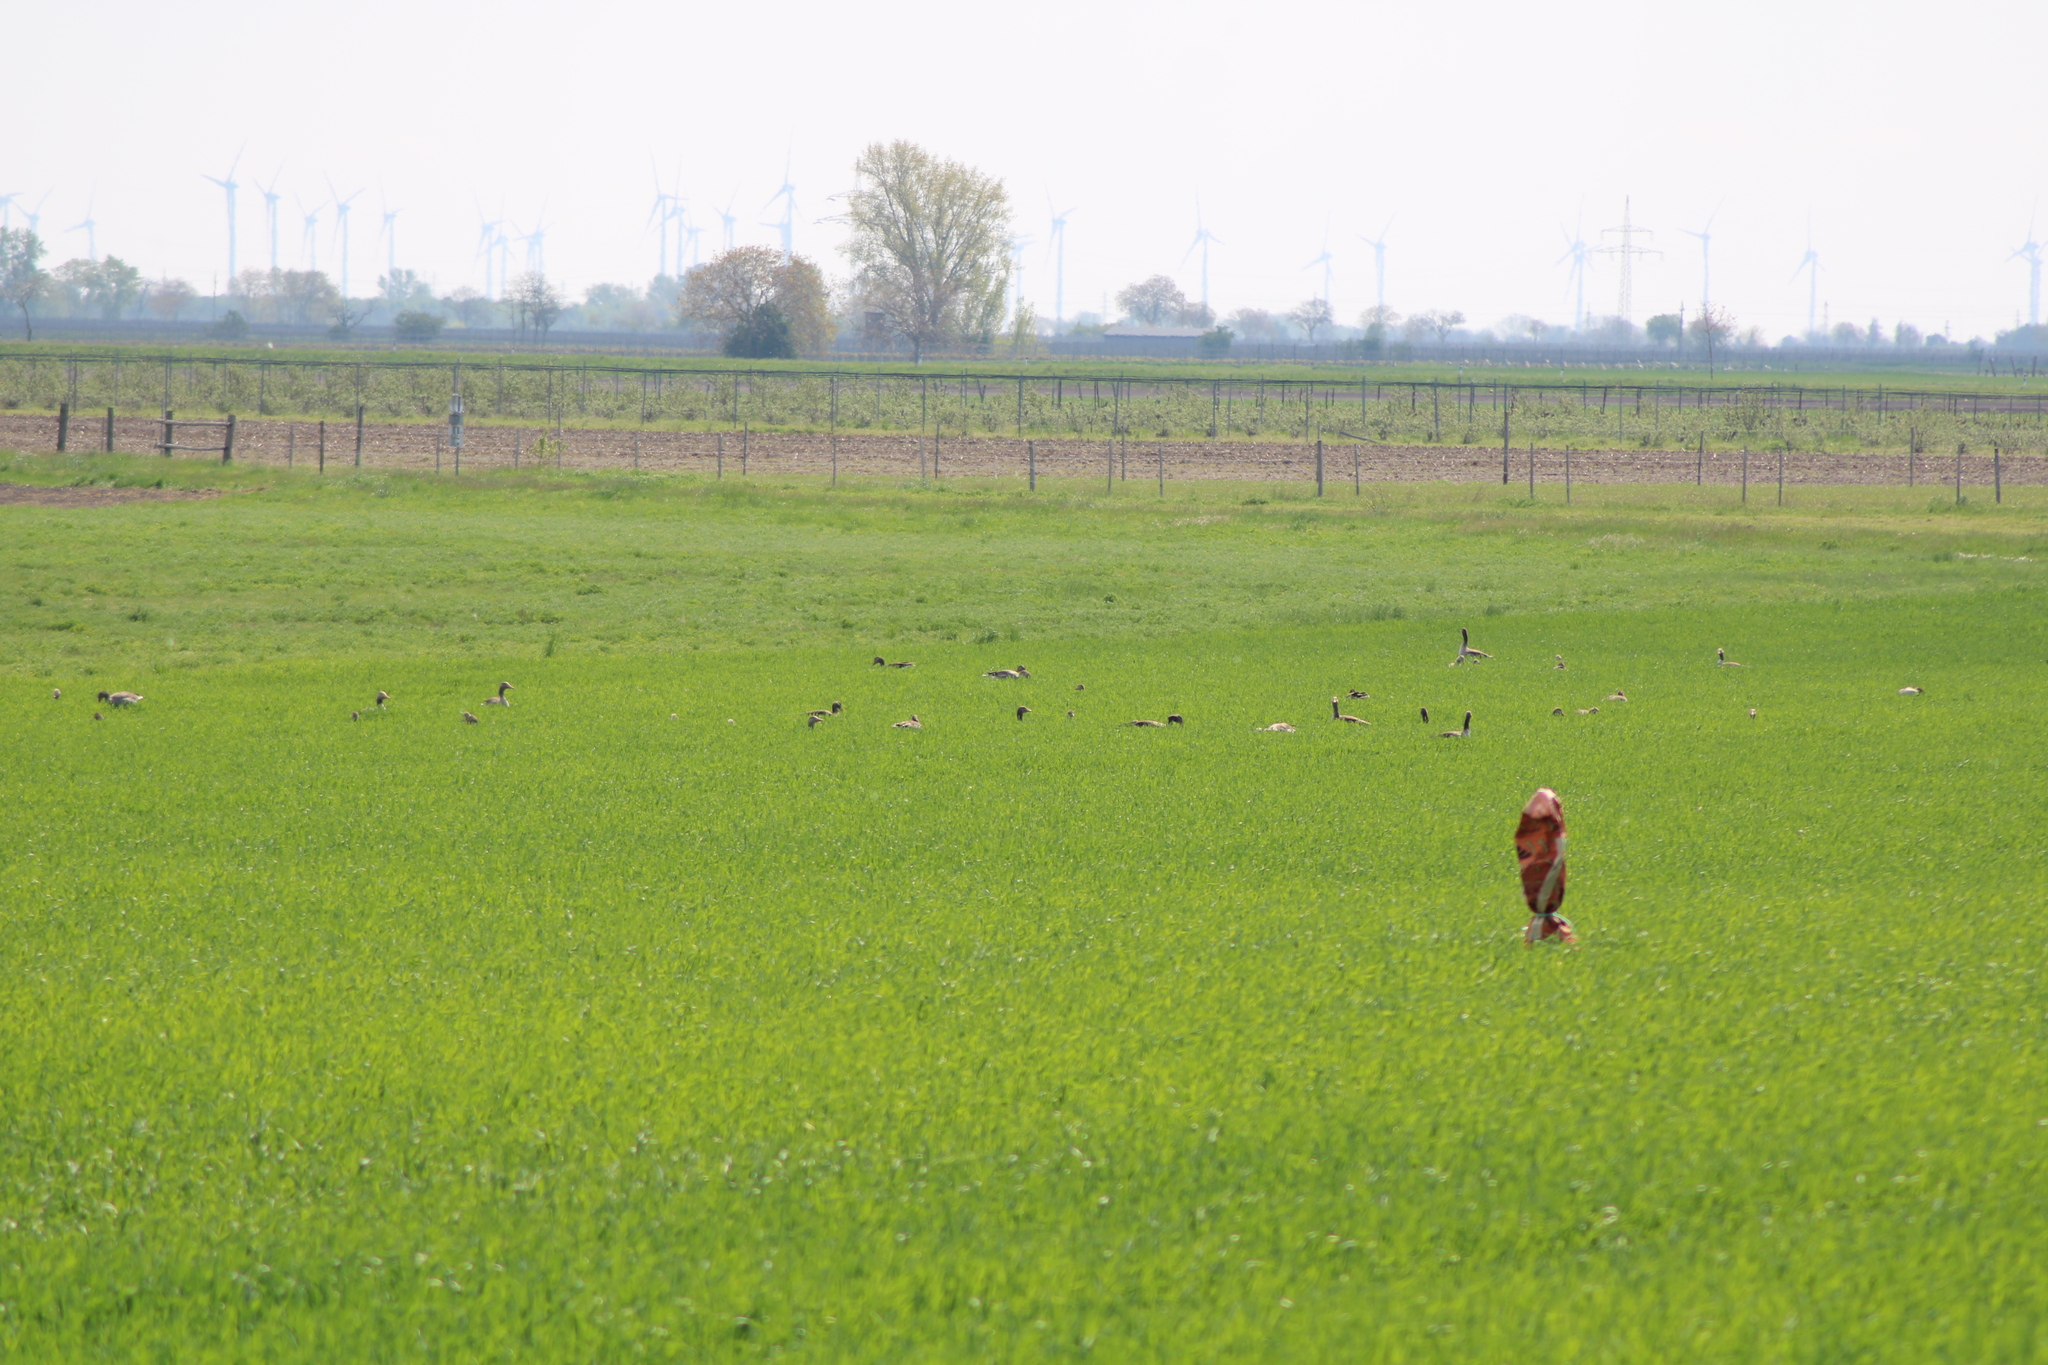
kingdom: Animalia
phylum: Chordata
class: Aves
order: Anseriformes
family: Anatidae
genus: Anser
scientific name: Anser anser
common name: Greylag goose
